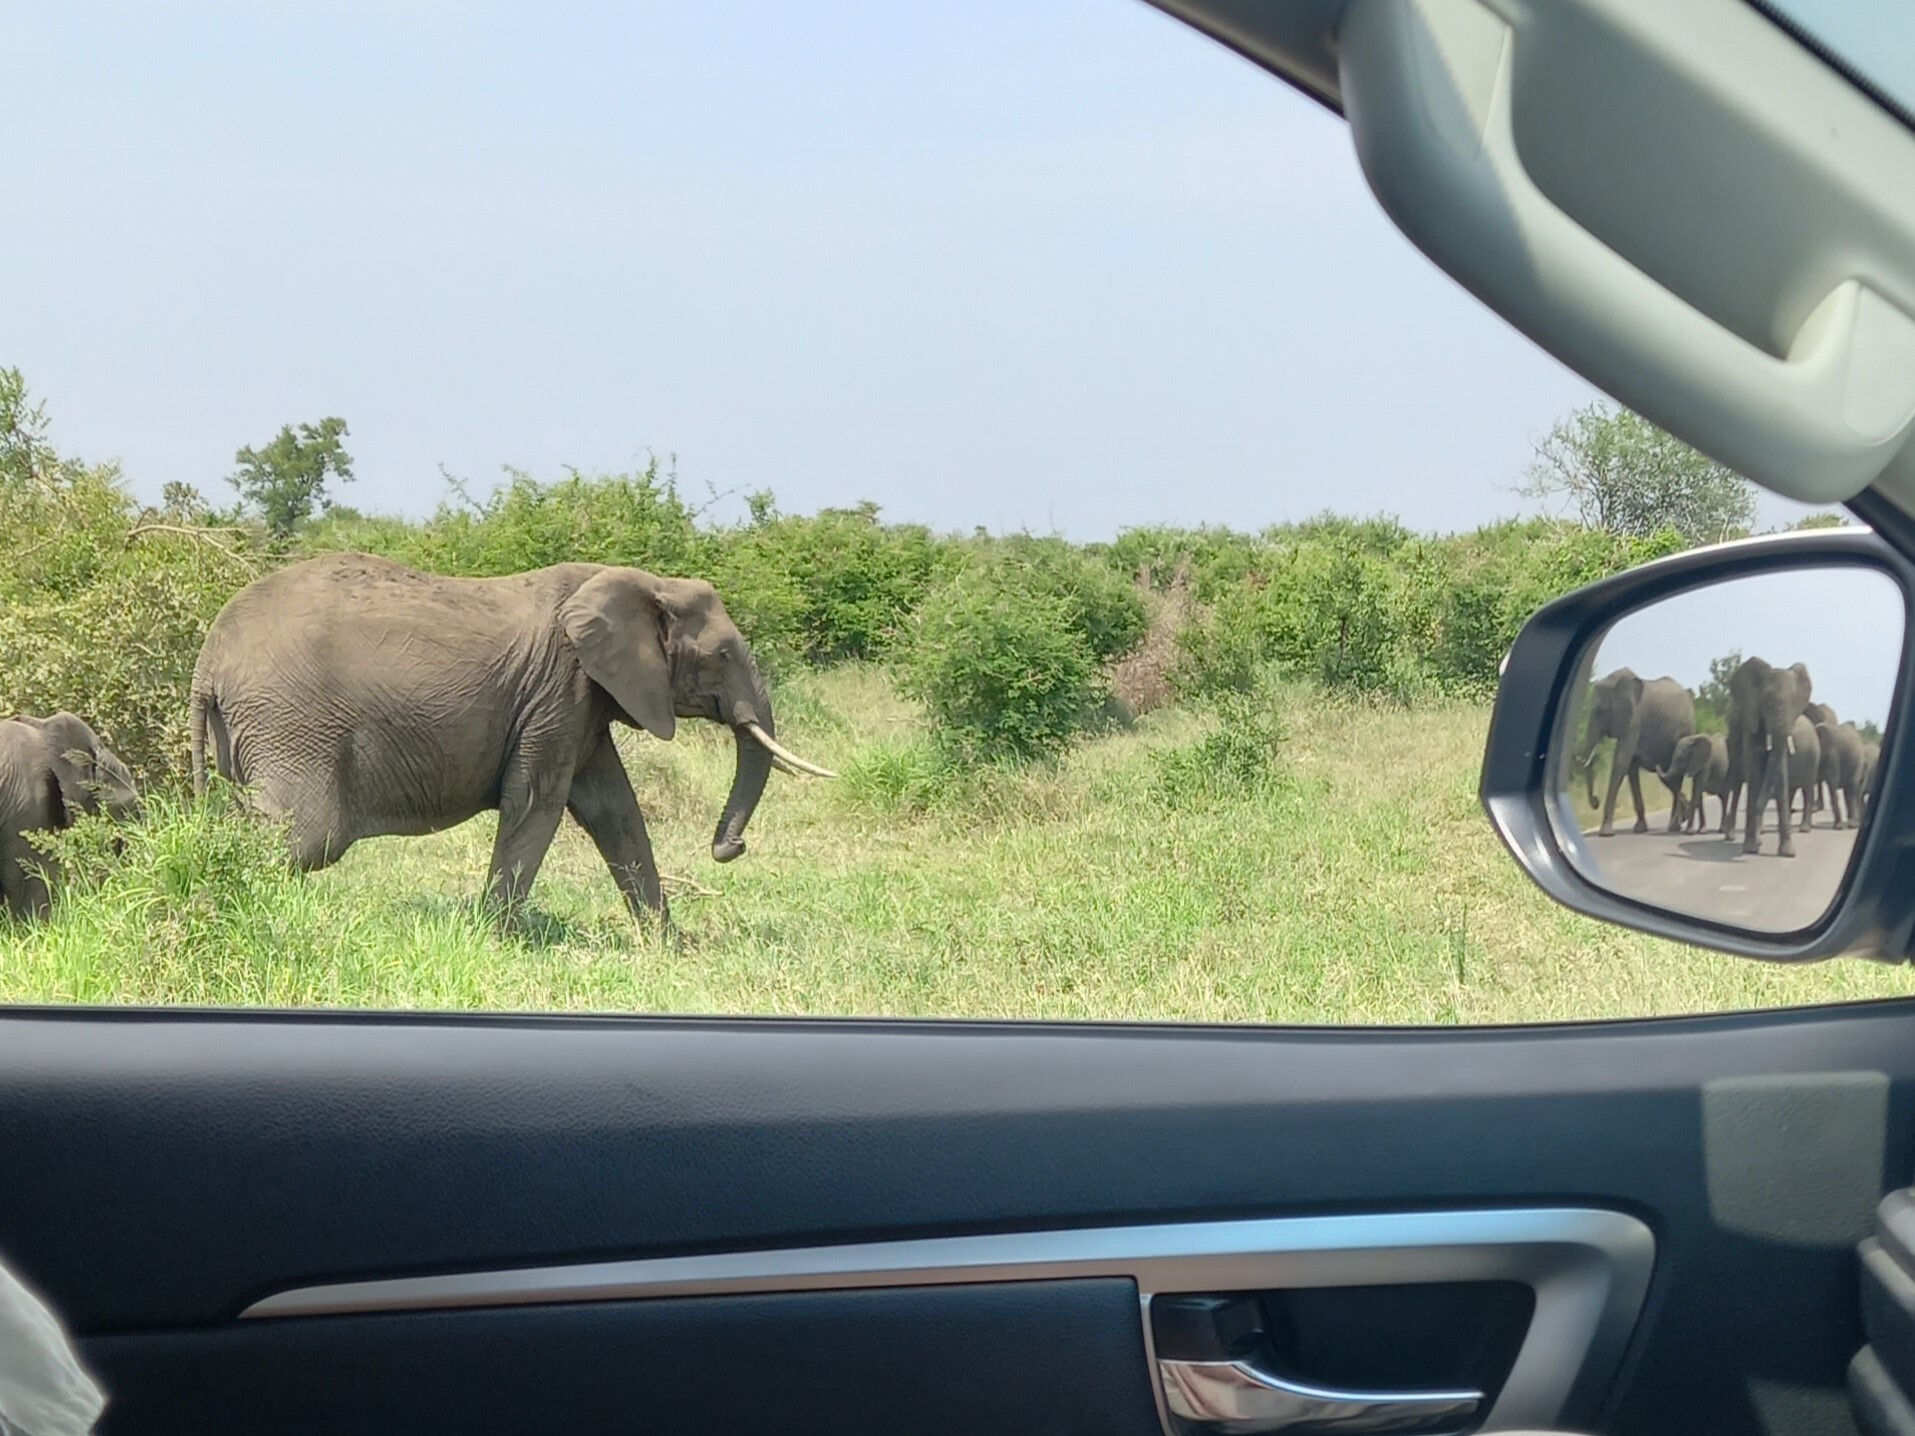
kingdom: Animalia
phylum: Chordata
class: Mammalia
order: Proboscidea
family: Elephantidae
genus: Loxodonta
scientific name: Loxodonta africana
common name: African elephant
